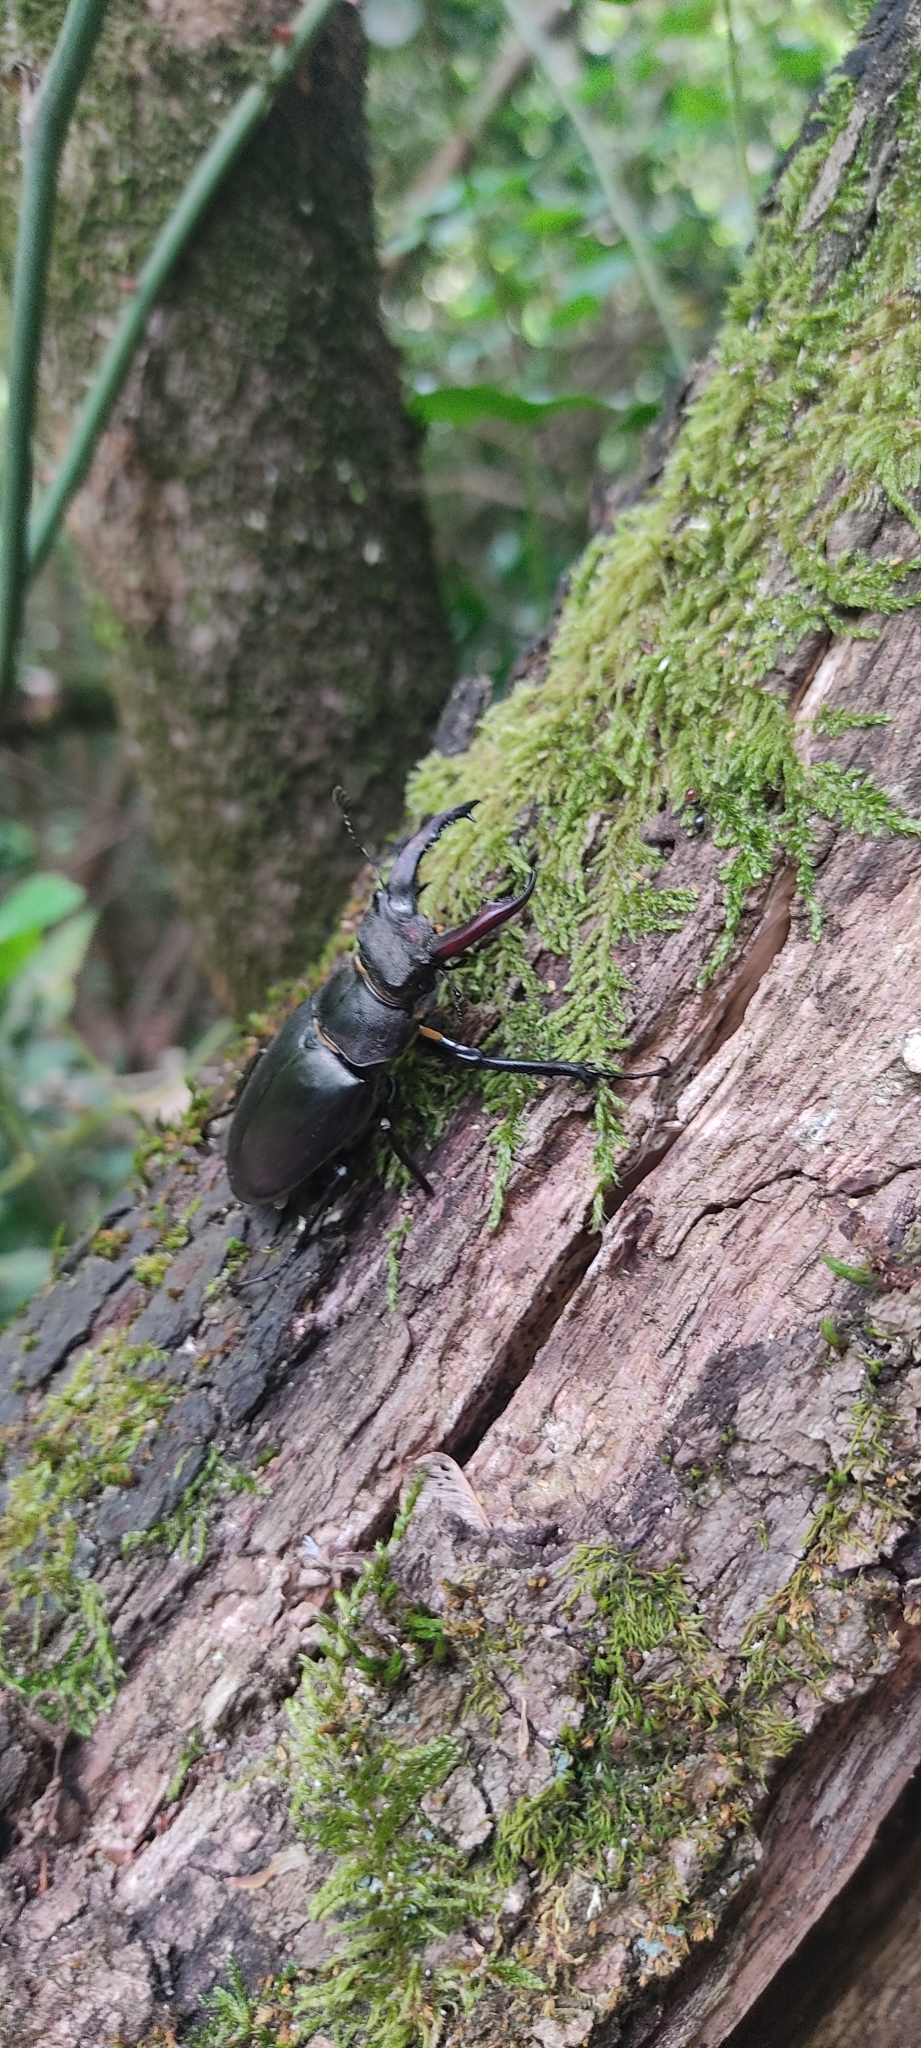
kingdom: Animalia
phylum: Arthropoda
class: Insecta
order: Coleoptera
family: Lucanidae
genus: Lucanus
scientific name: Lucanus cervus
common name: Stag beetle
